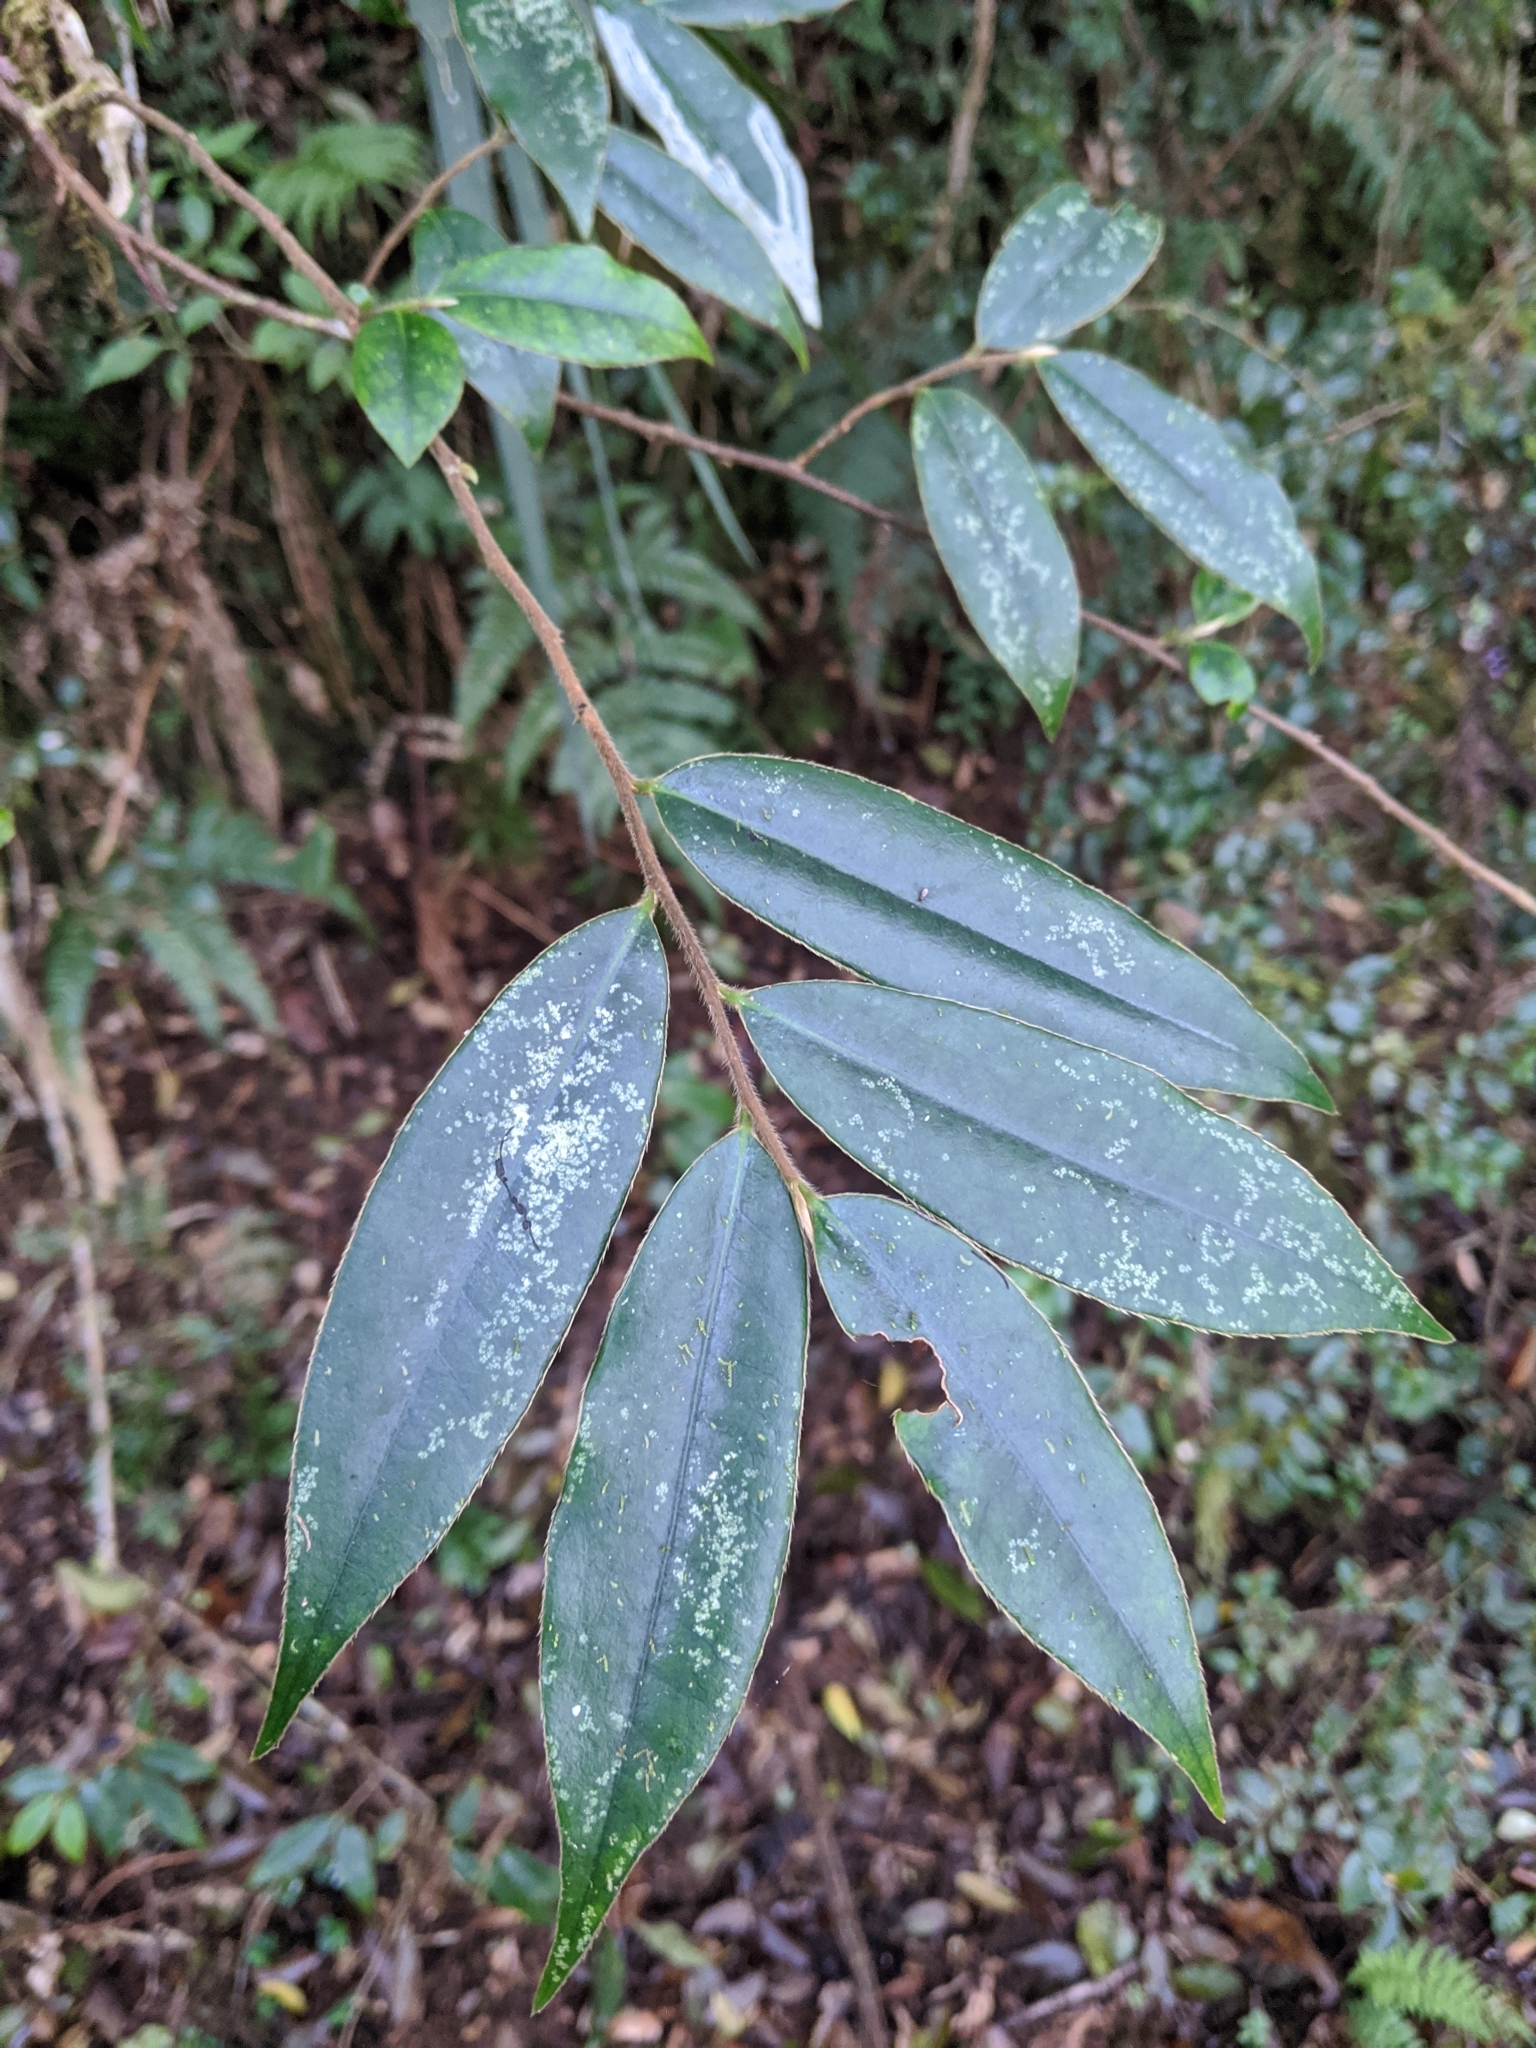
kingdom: Plantae
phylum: Tracheophyta
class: Magnoliopsida
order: Ericales
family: Pentaphylacaceae
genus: Adinandra
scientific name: Adinandra lasiostyla
